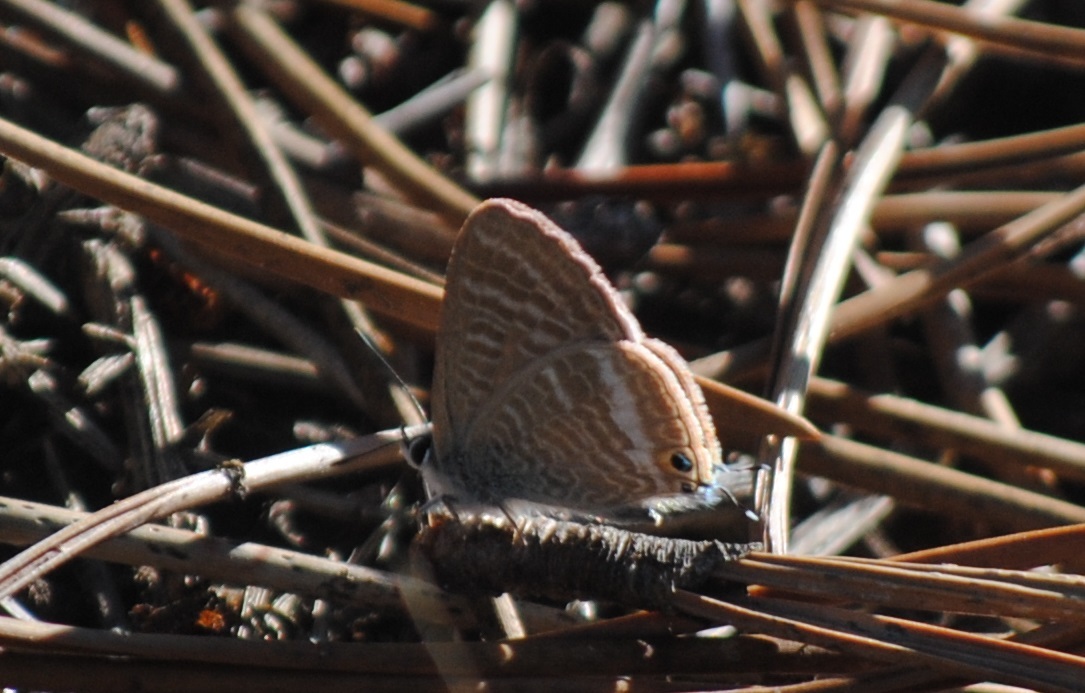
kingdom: Animalia
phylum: Arthropoda
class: Insecta
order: Lepidoptera
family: Lycaenidae
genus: Lampides
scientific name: Lampides boeticus
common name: Long-tailed blue
